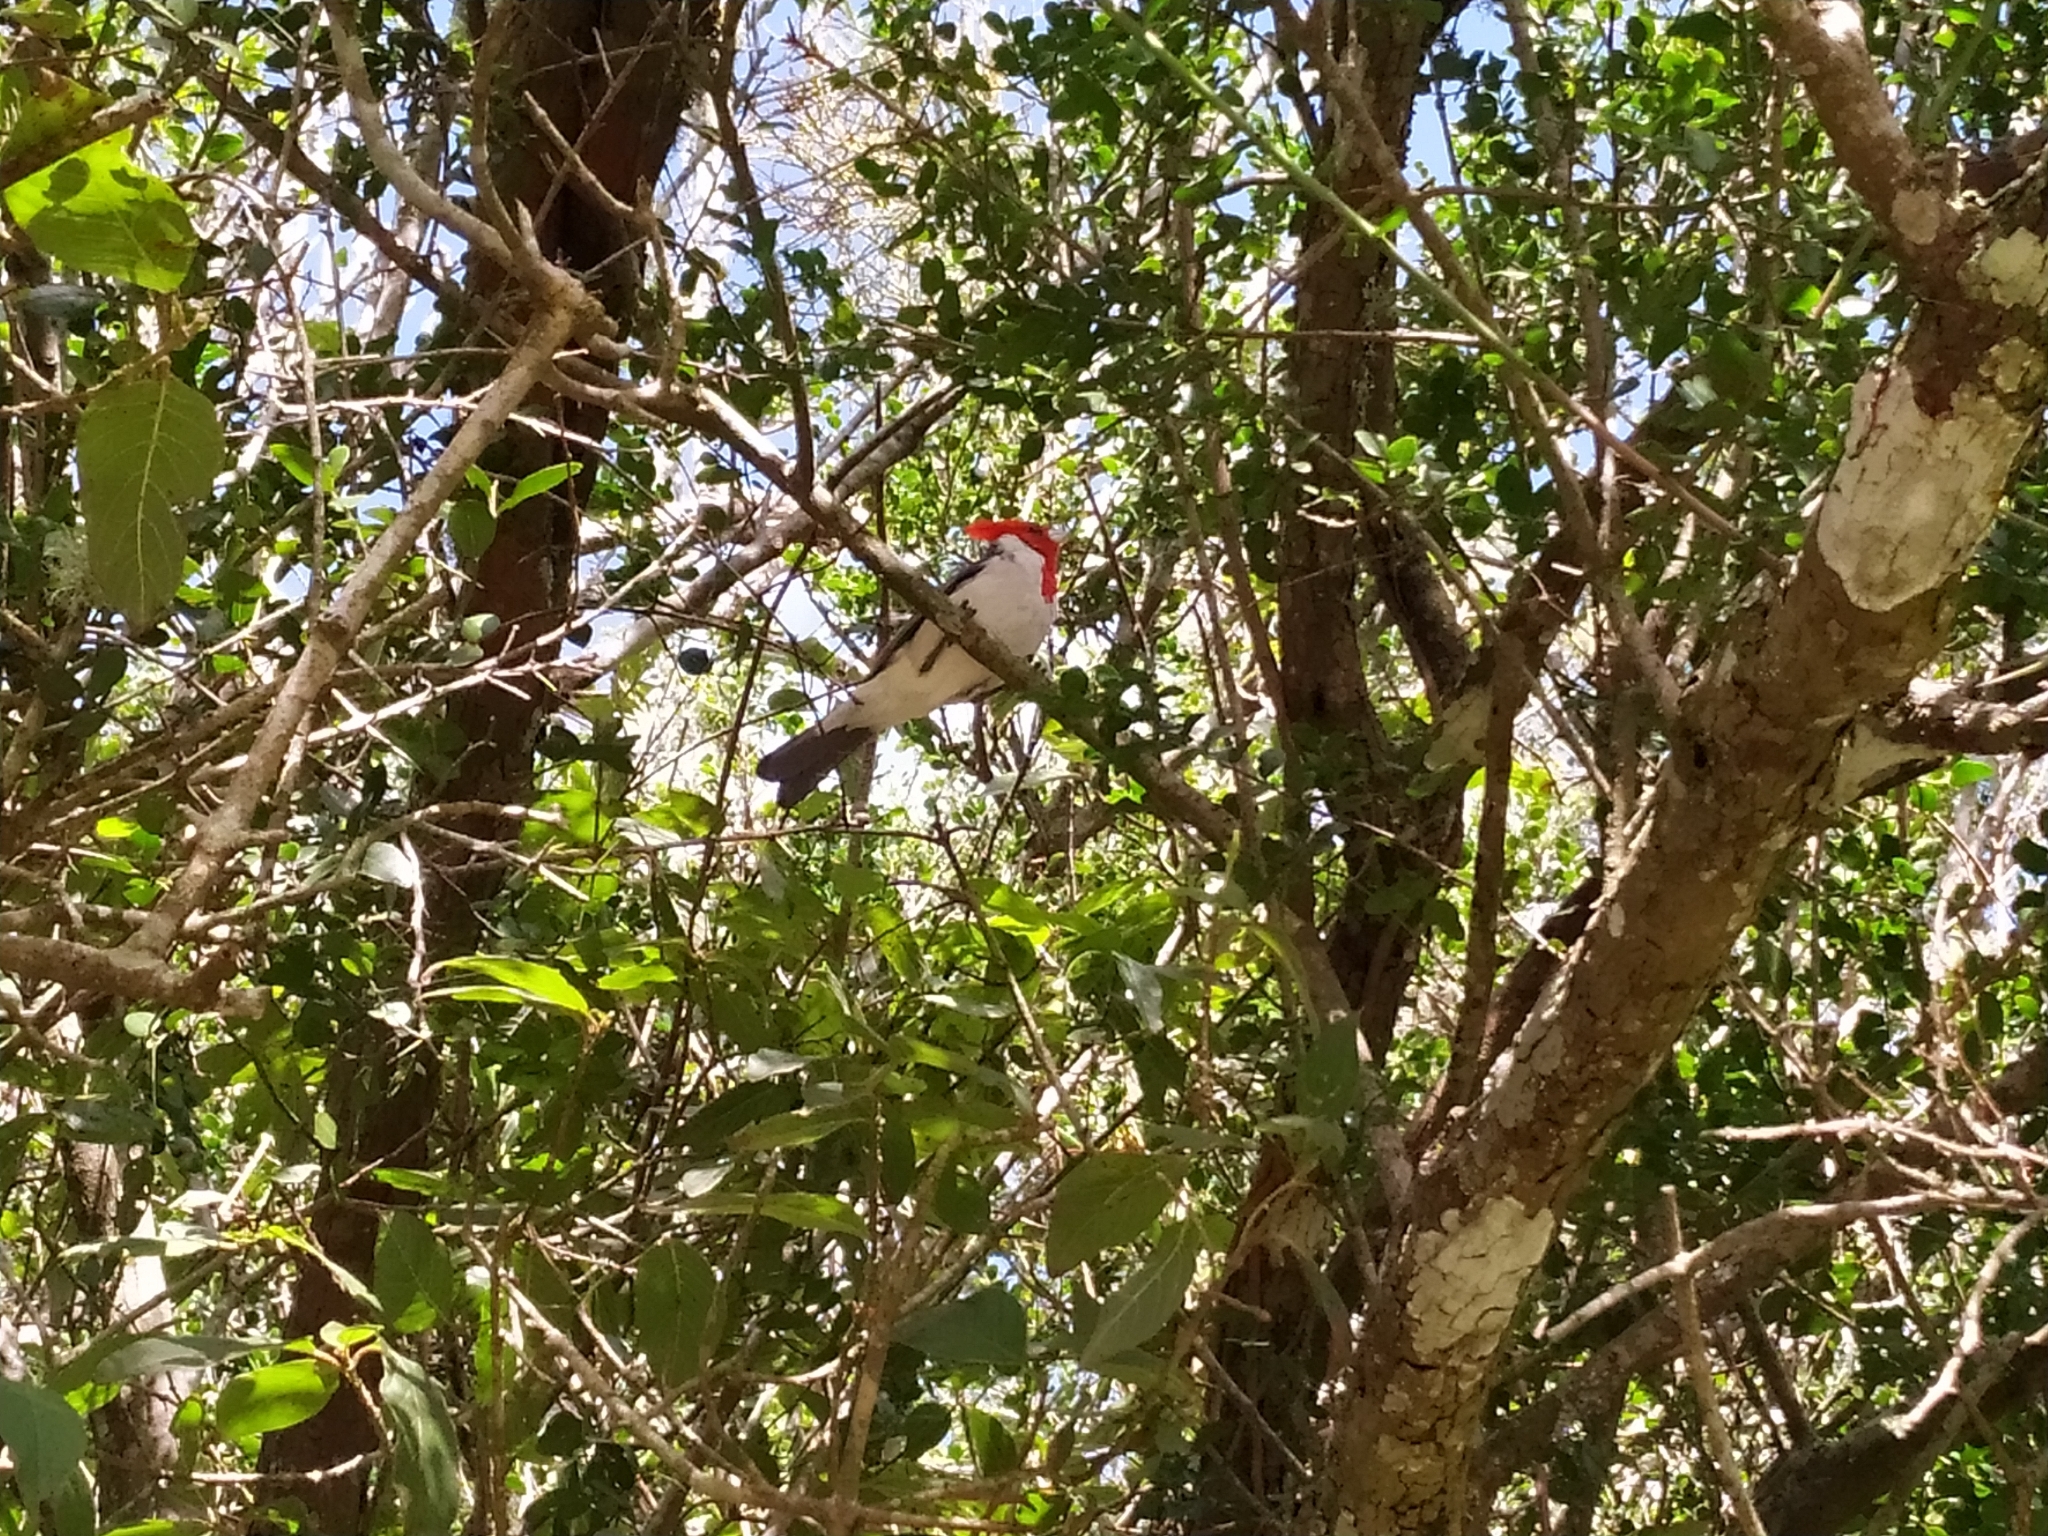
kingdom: Animalia
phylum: Chordata
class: Aves
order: Passeriformes
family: Thraupidae
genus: Paroaria
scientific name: Paroaria coronata
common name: Red-crested cardinal
